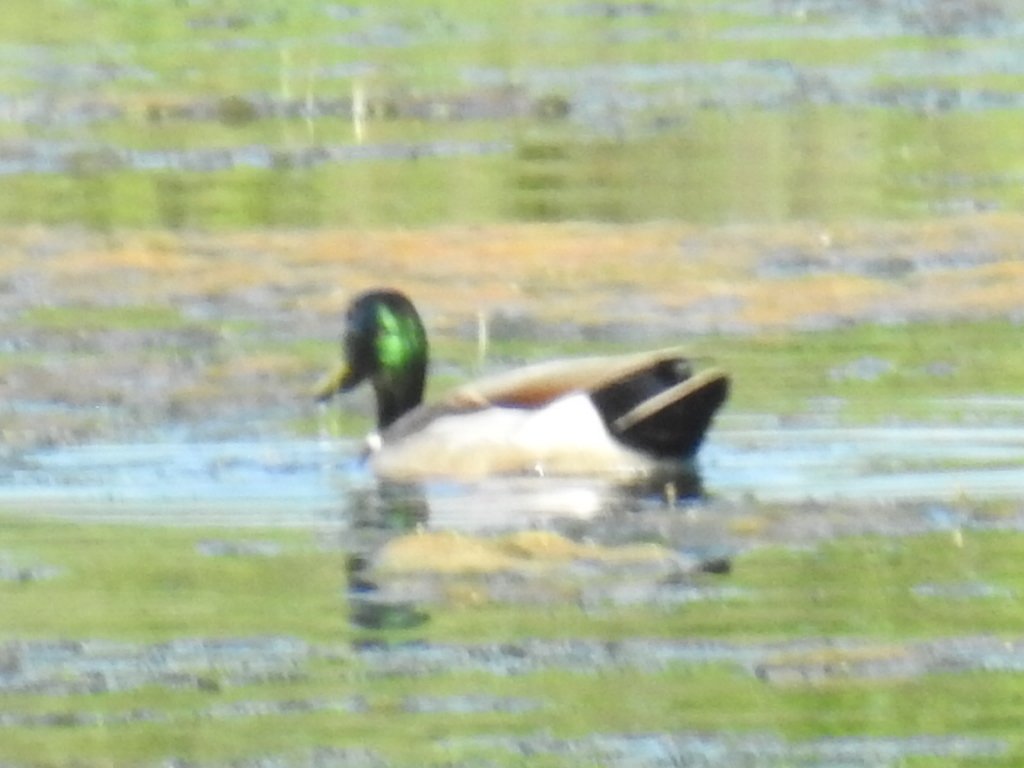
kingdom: Animalia
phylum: Chordata
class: Aves
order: Anseriformes
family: Anatidae
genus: Anas
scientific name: Anas platyrhynchos
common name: Mallard
